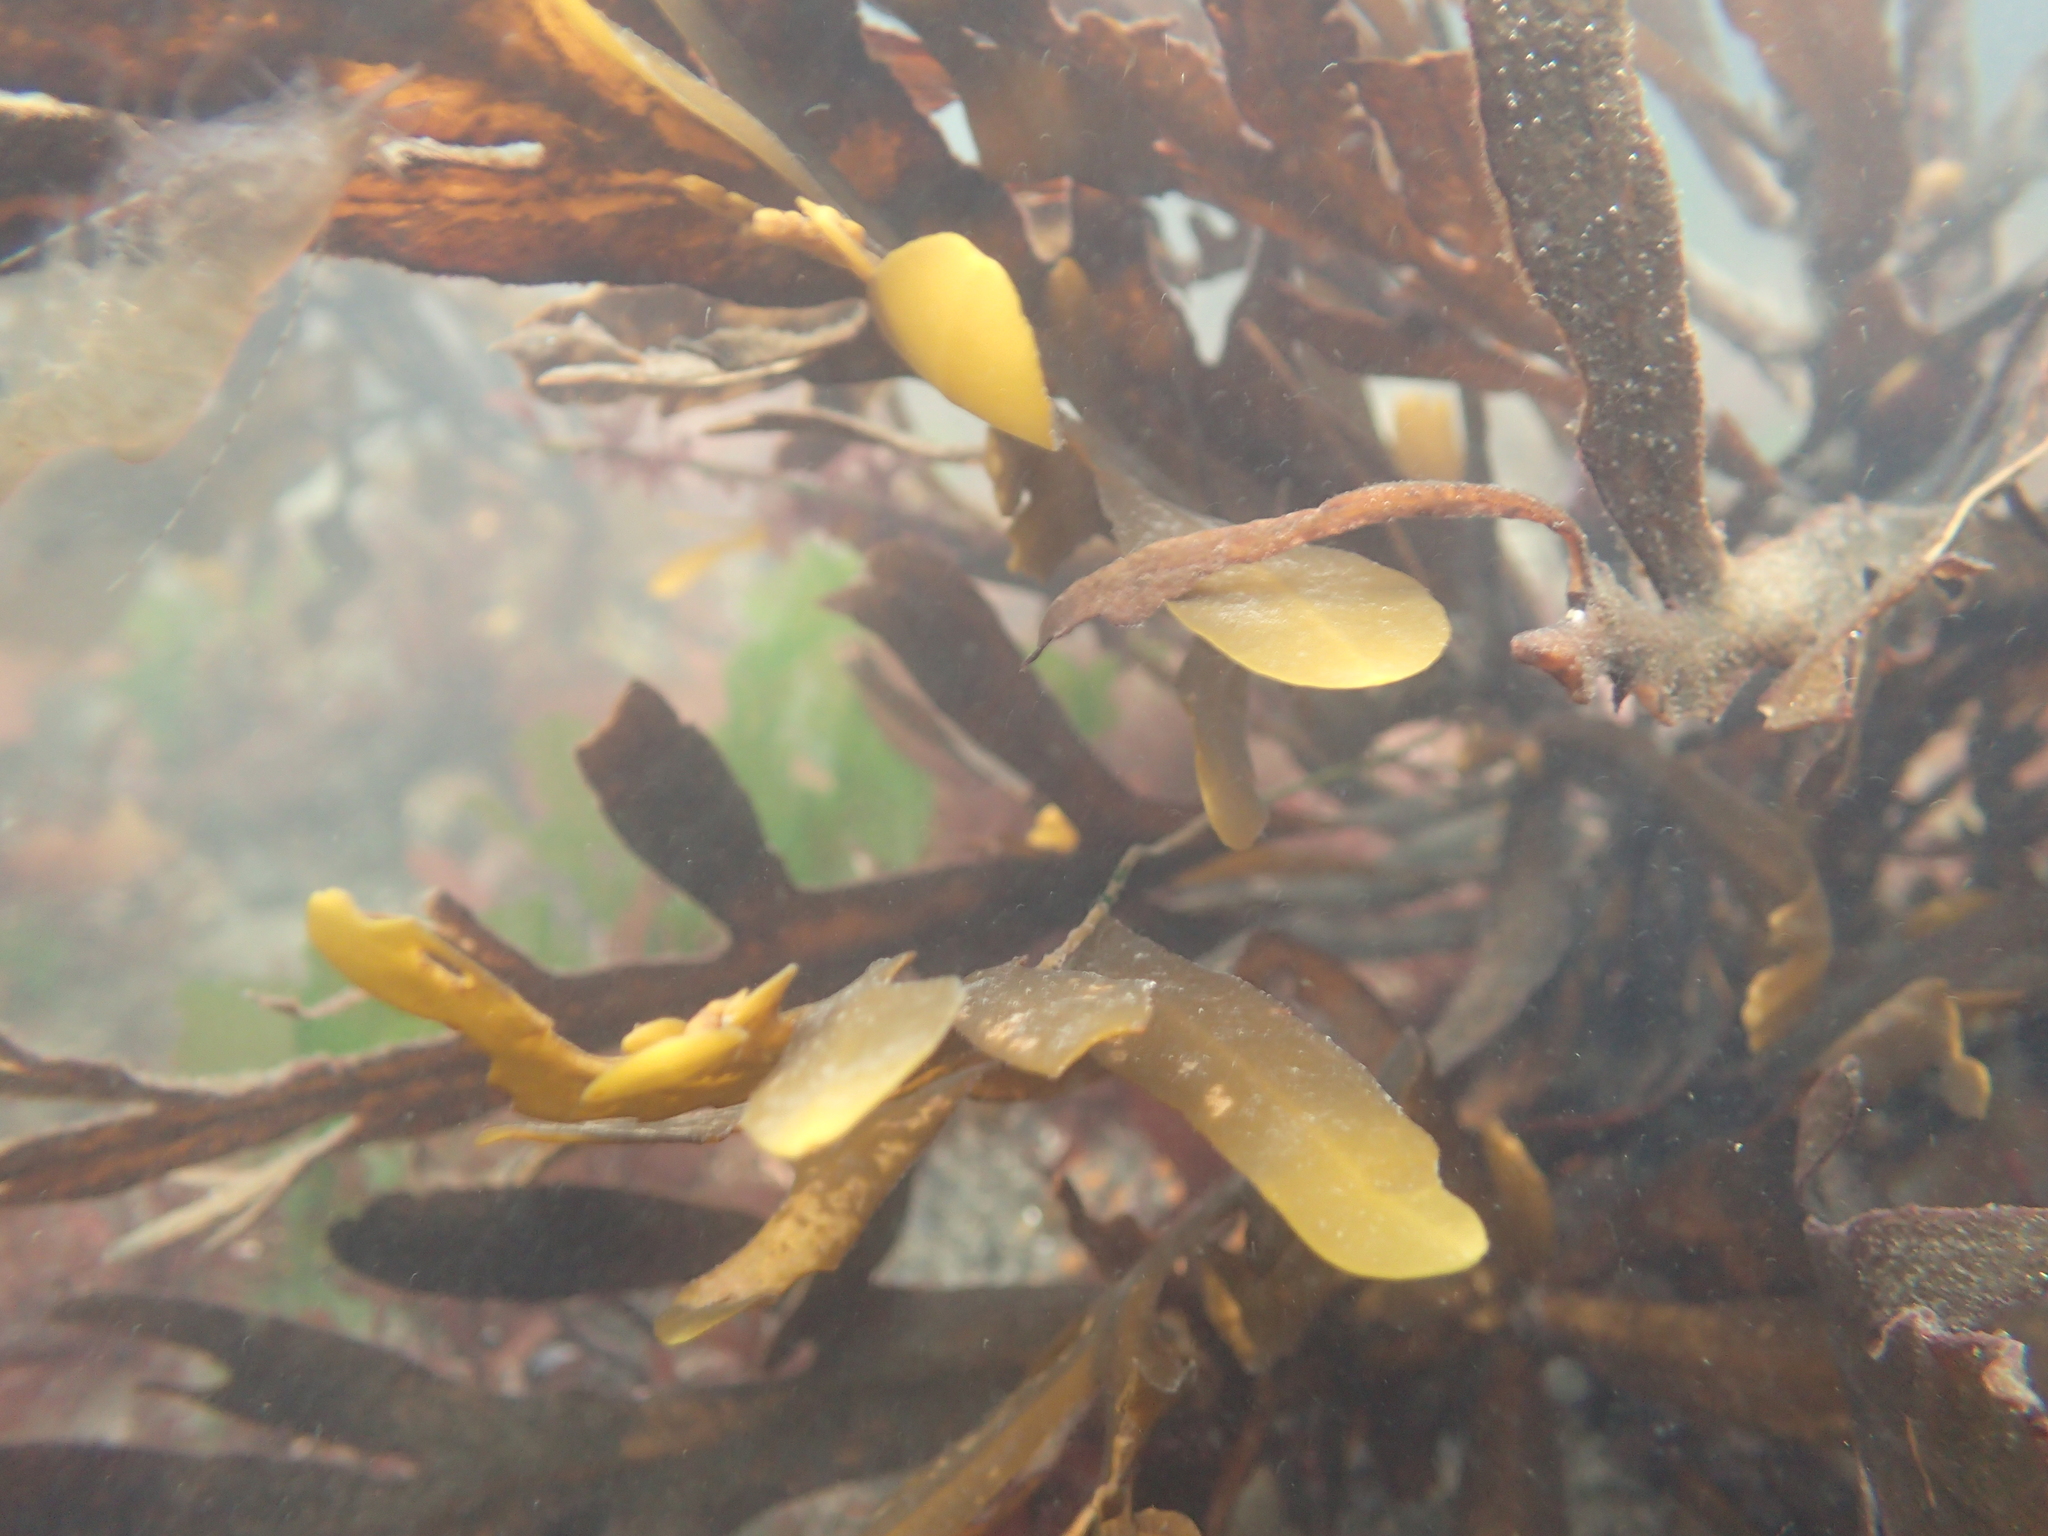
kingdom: Chromista
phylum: Ochrophyta
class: Phaeophyceae
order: Fucales
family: Sargassaceae
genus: Stephanocystis
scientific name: Stephanocystis
